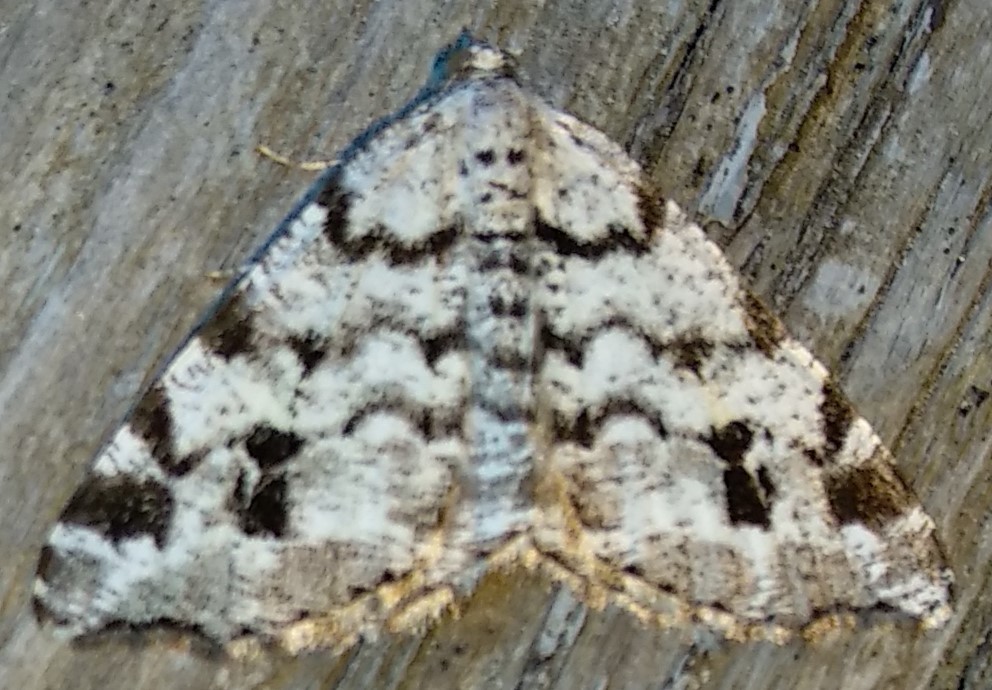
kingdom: Animalia
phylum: Arthropoda
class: Insecta
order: Lepidoptera
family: Geometridae
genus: Macaria
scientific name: Macaria oweni
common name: Owen's angle
